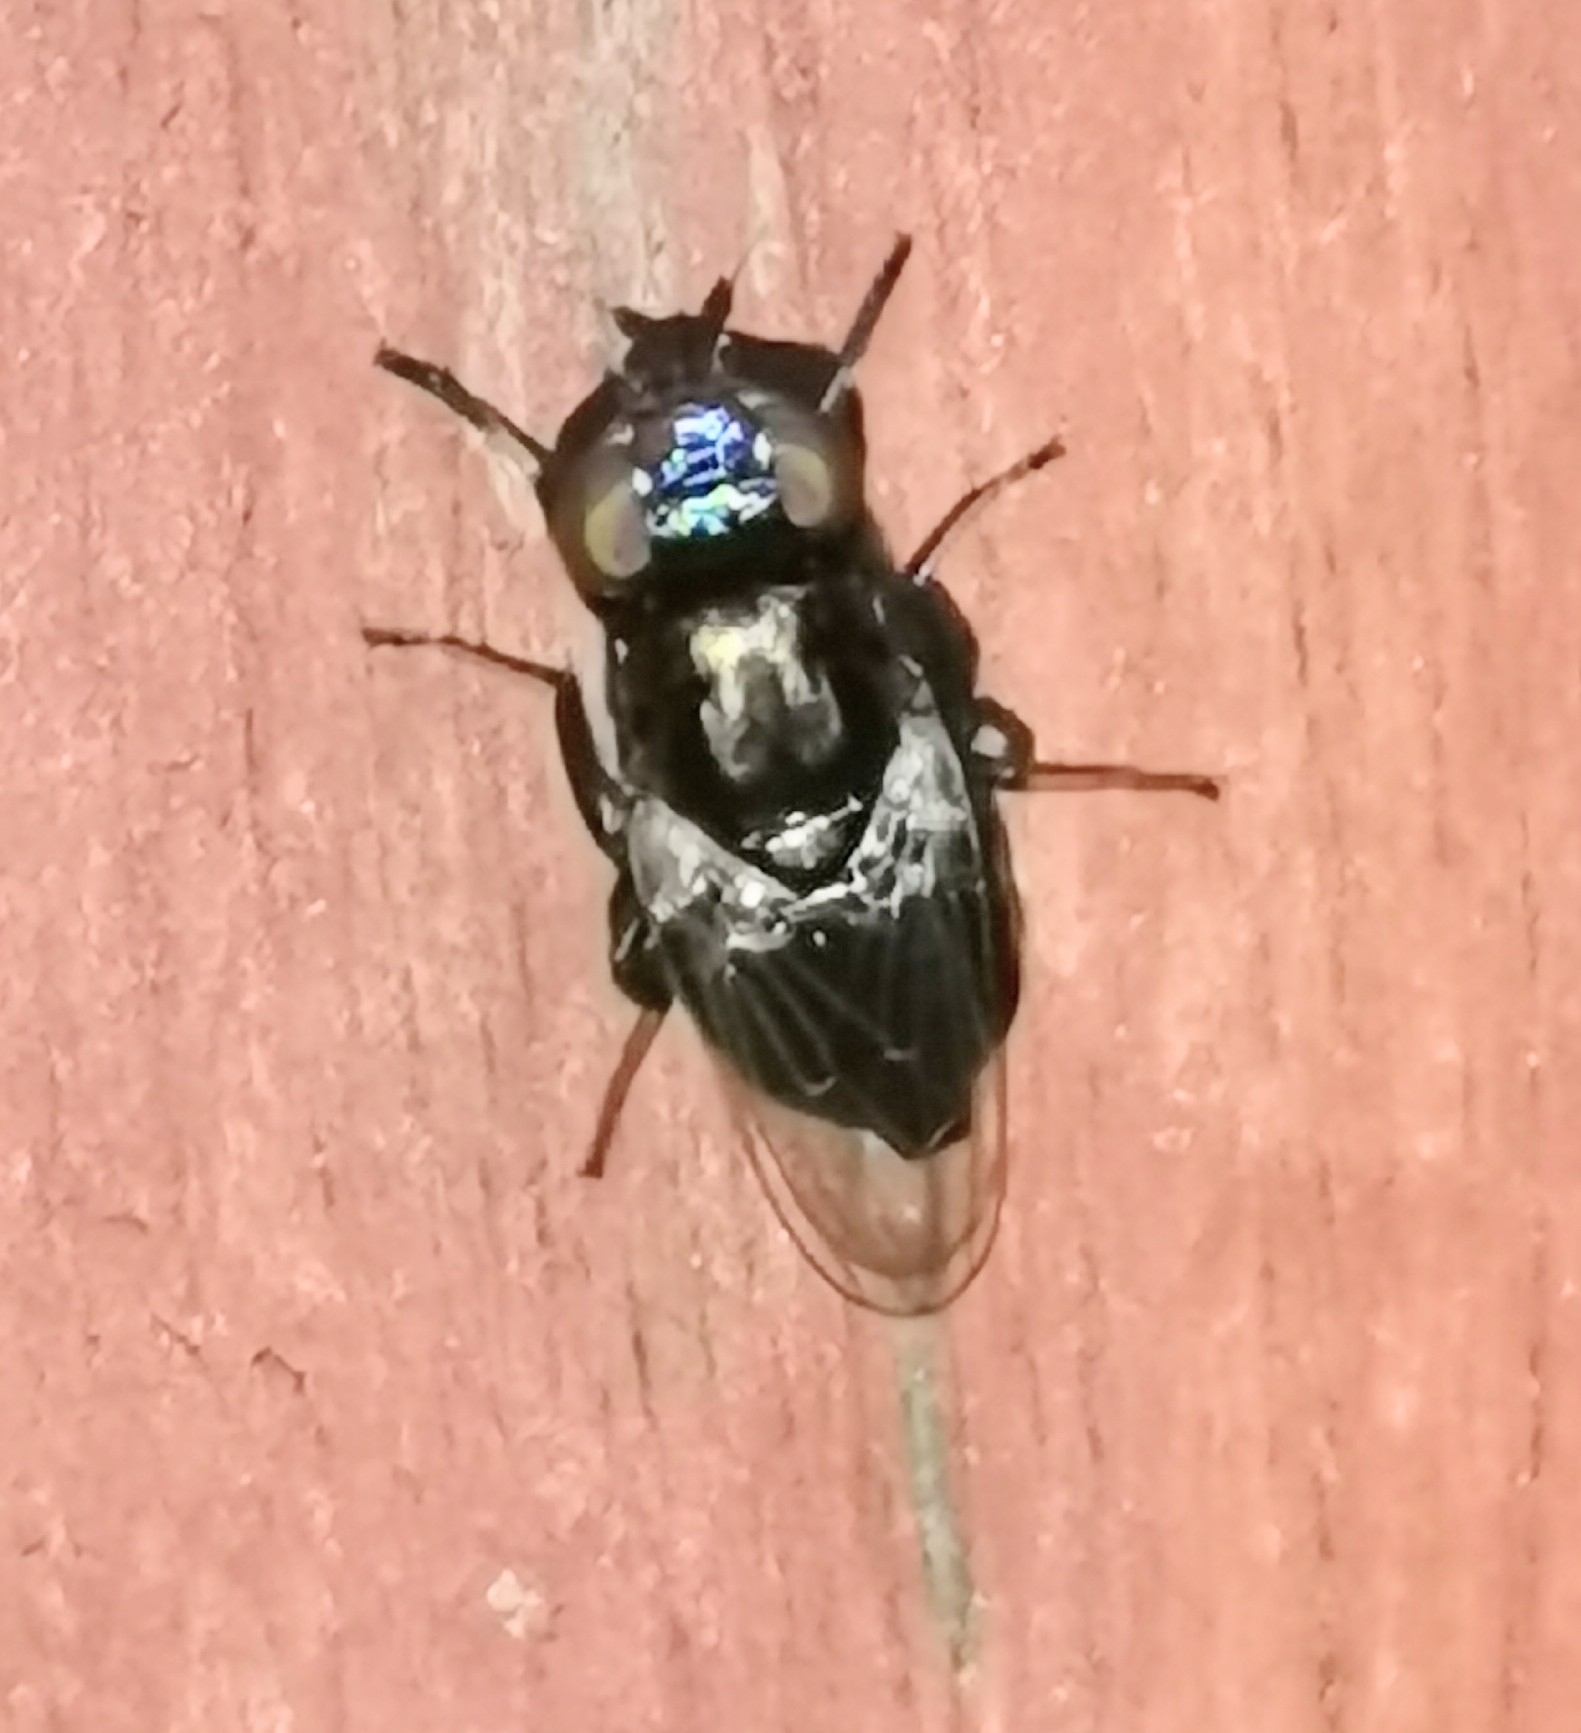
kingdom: Animalia
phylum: Arthropoda
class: Insecta
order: Diptera
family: Ulidiidae
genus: Physiphora
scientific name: Physiphora alceae
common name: Picture-winged fly
